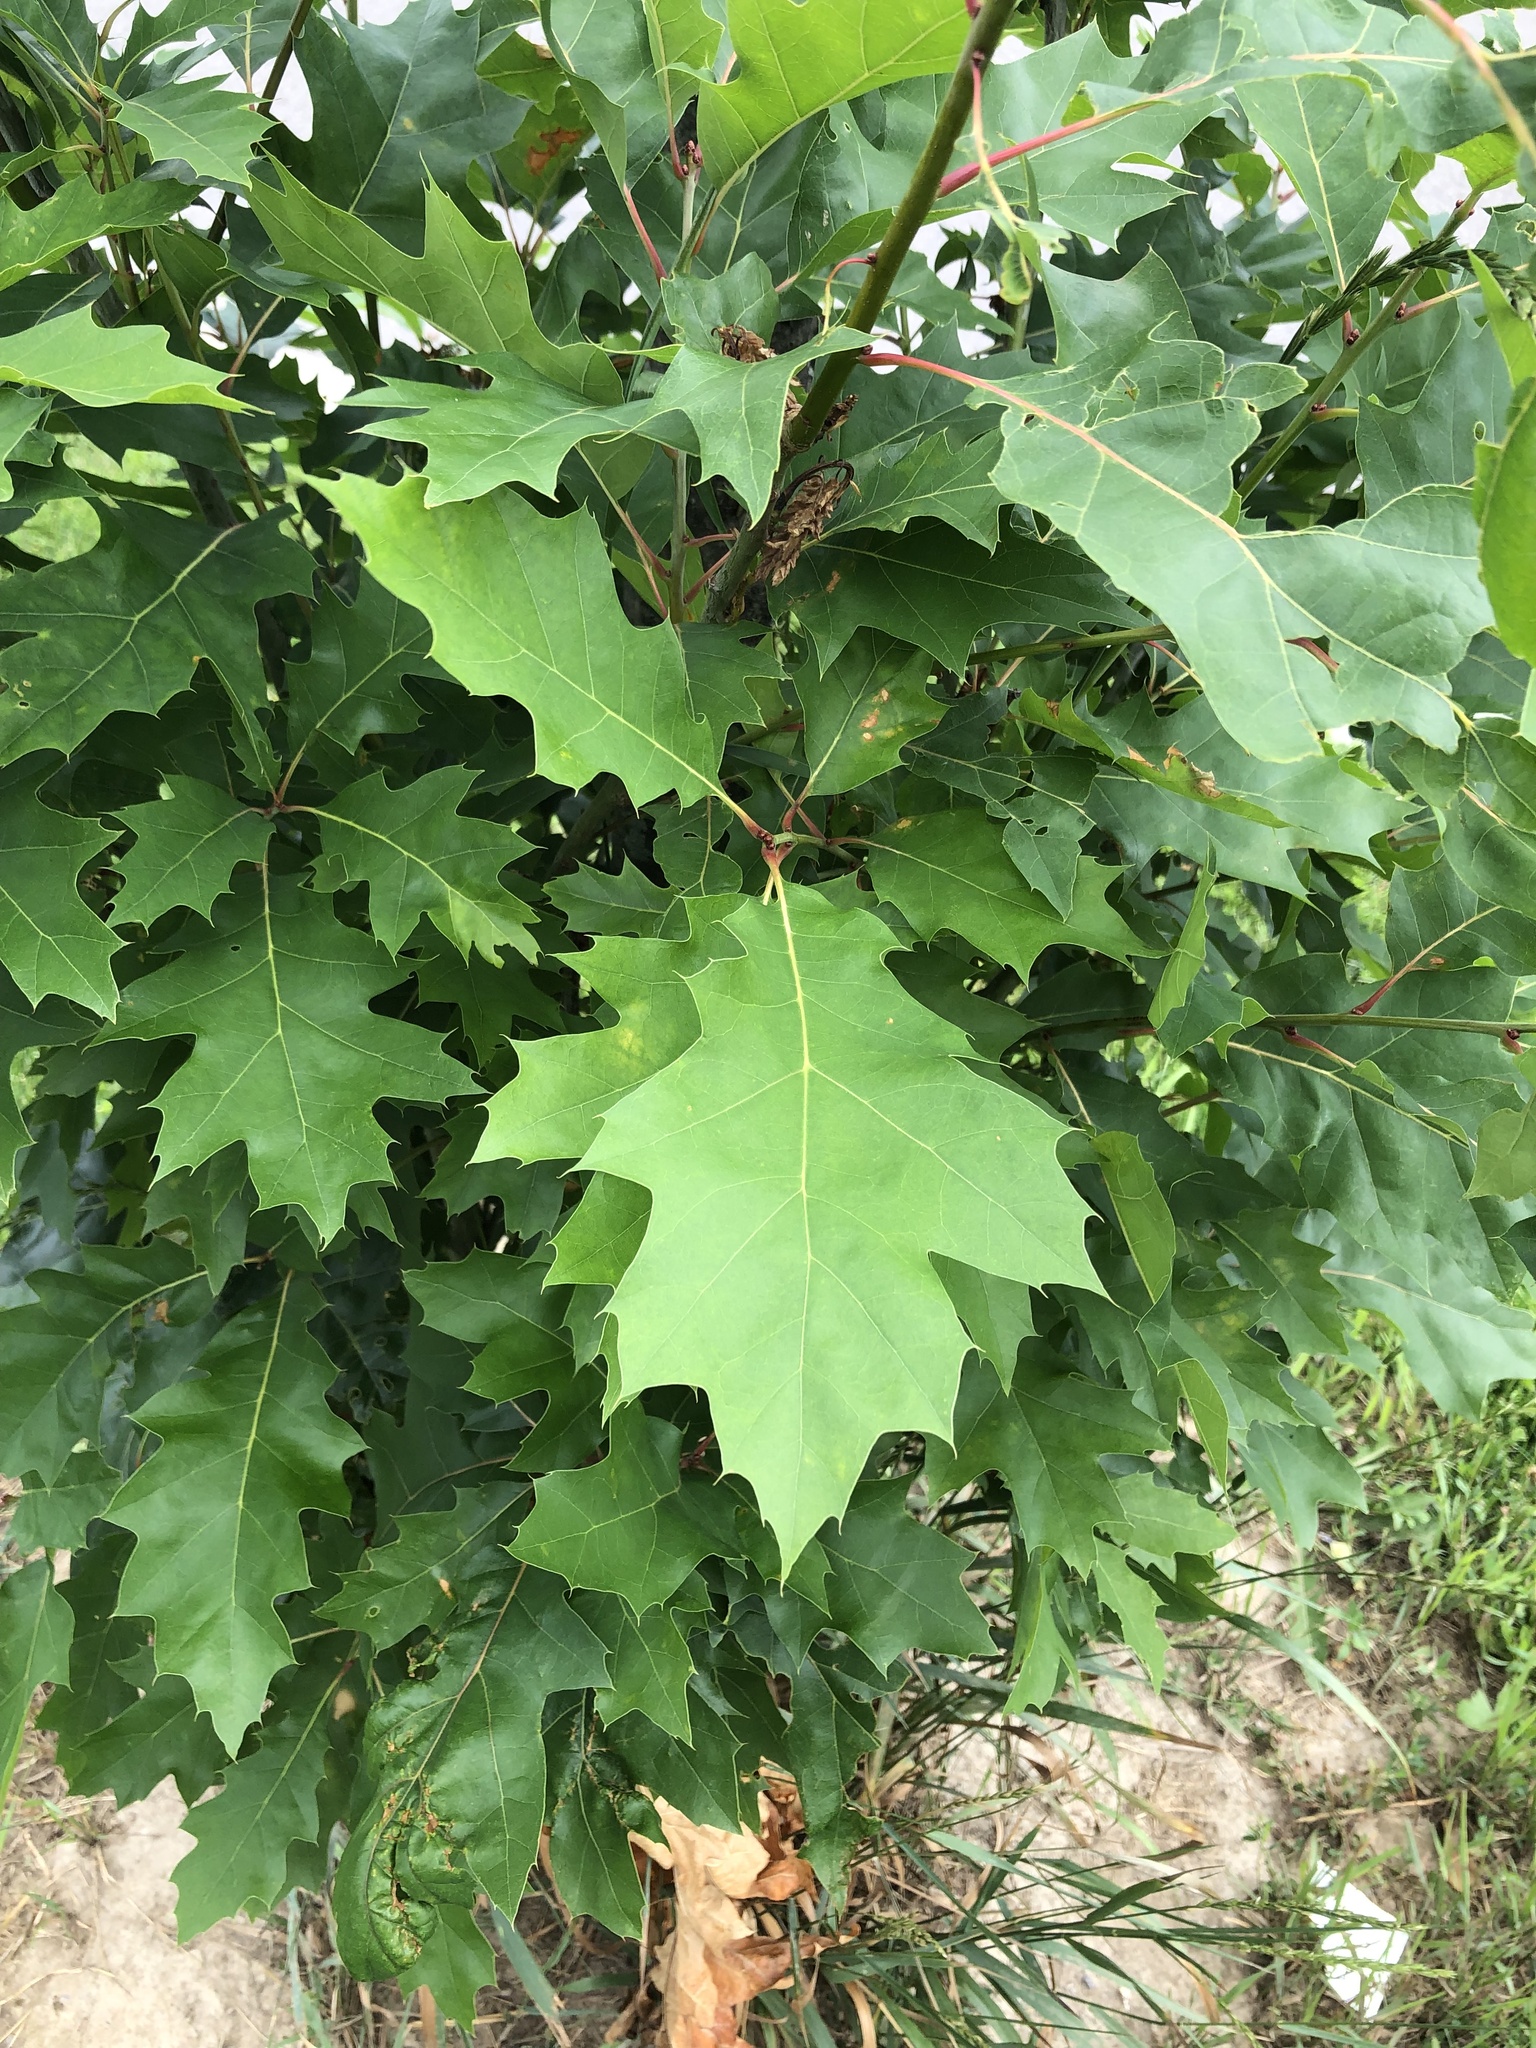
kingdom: Plantae
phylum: Tracheophyta
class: Magnoliopsida
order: Fagales
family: Fagaceae
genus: Quercus
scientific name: Quercus rubra
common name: Red oak
